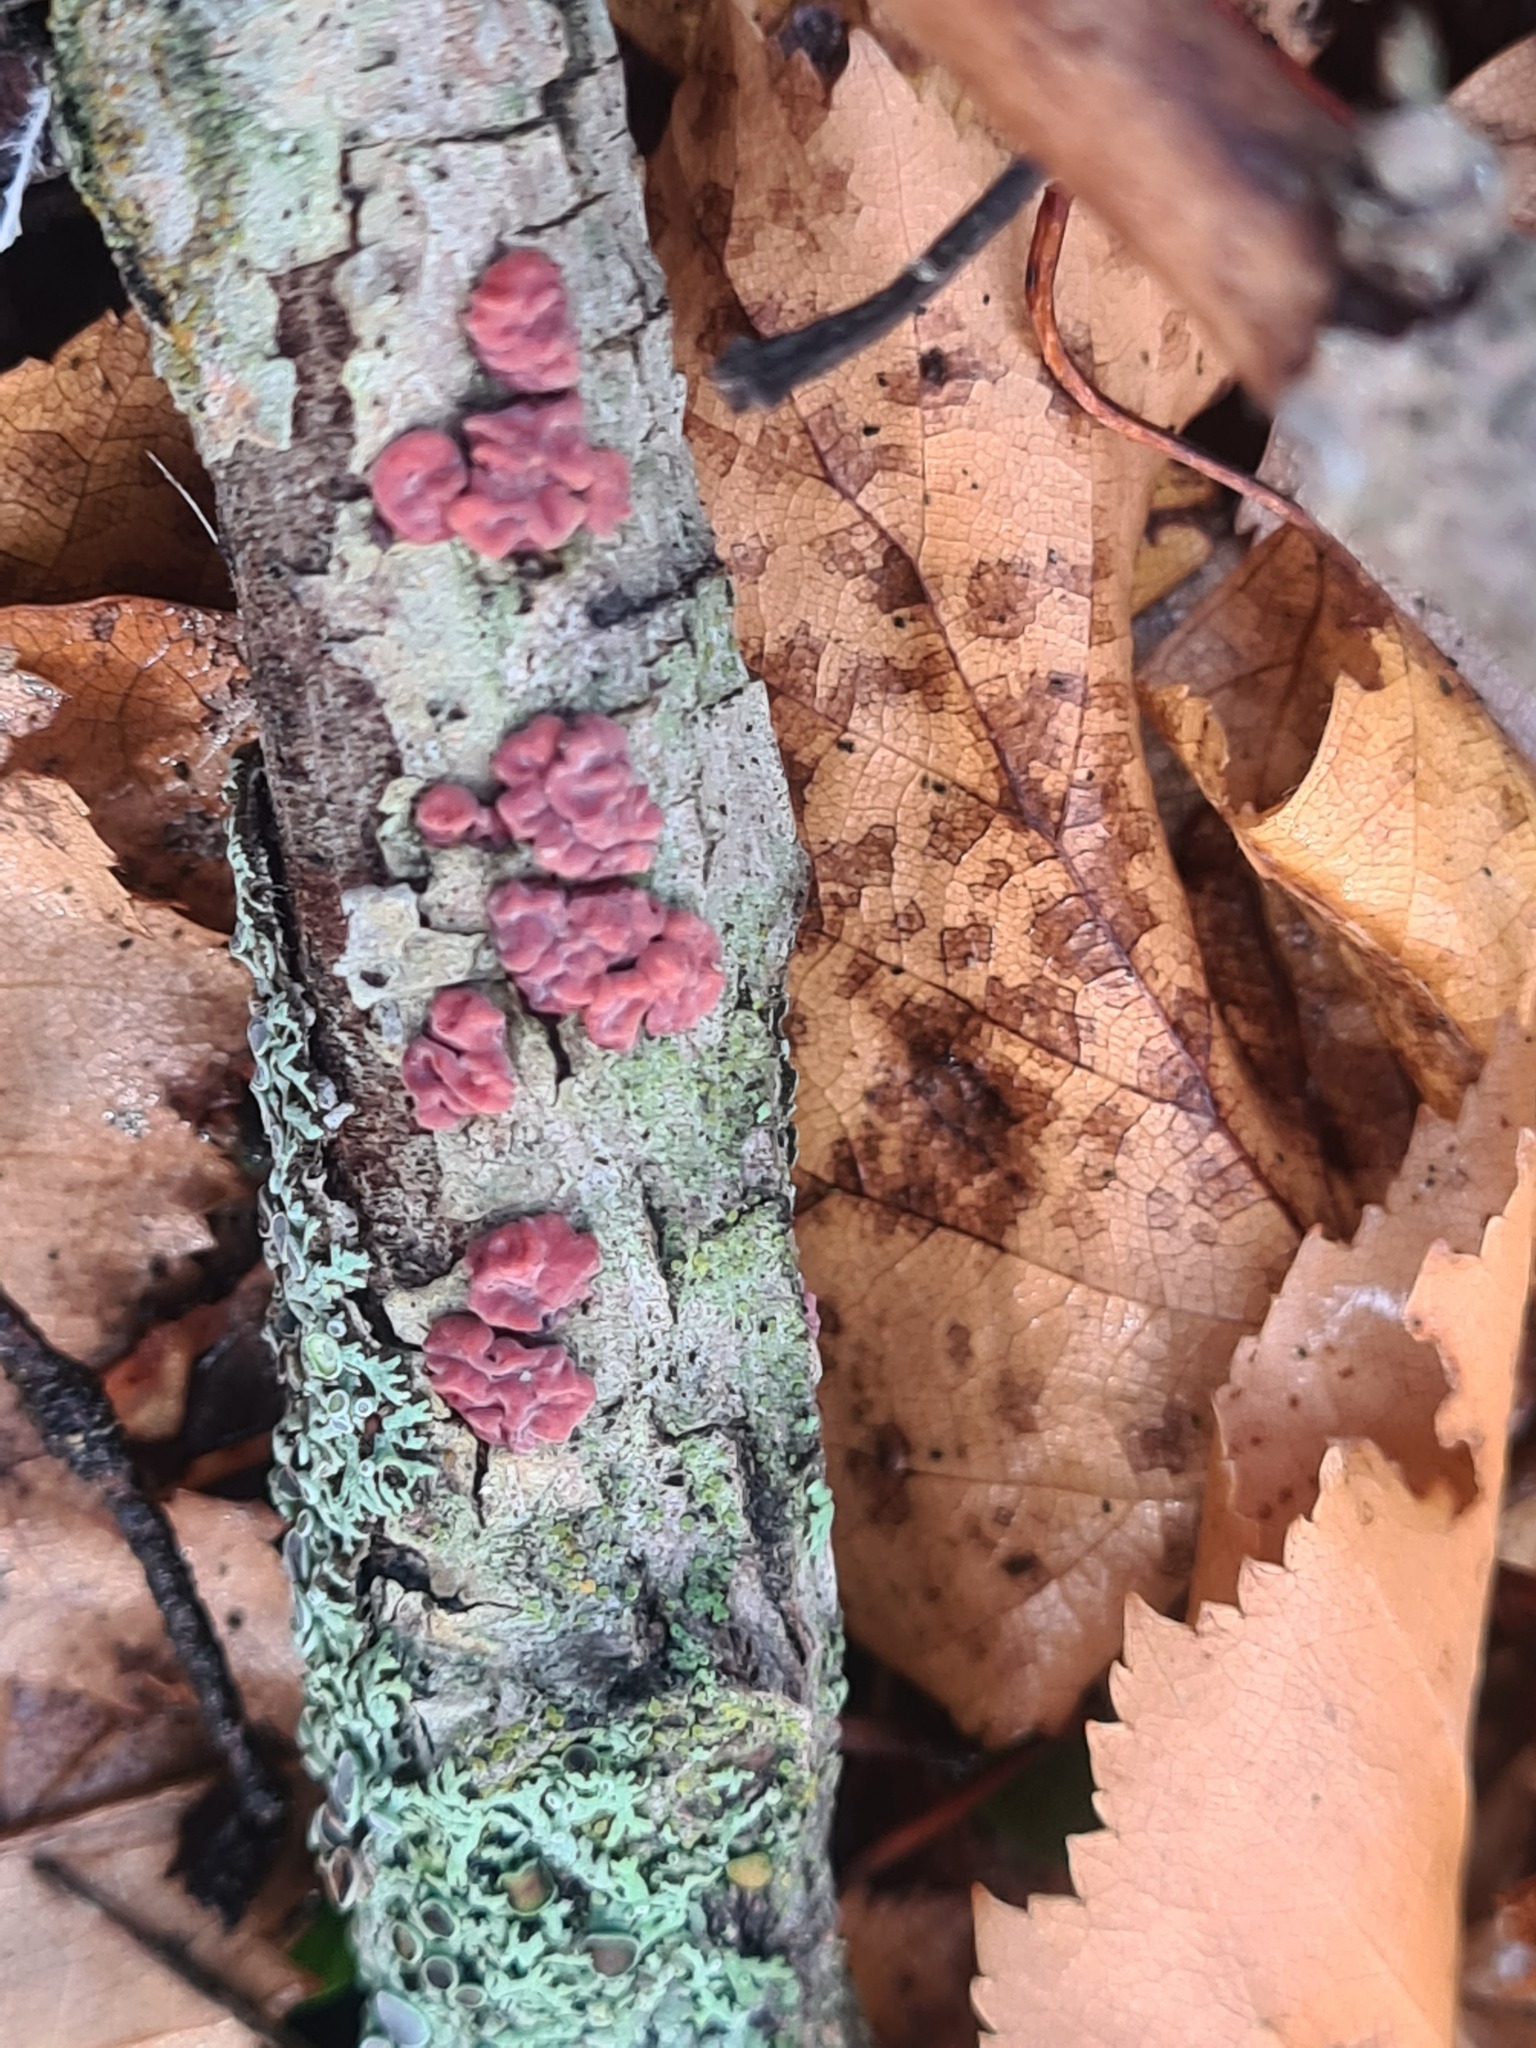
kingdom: Fungi
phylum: Basidiomycota
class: Agaricomycetes
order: Russulales
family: Peniophoraceae
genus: Peniophora
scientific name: Peniophora rufa
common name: Red tree brain fungus
